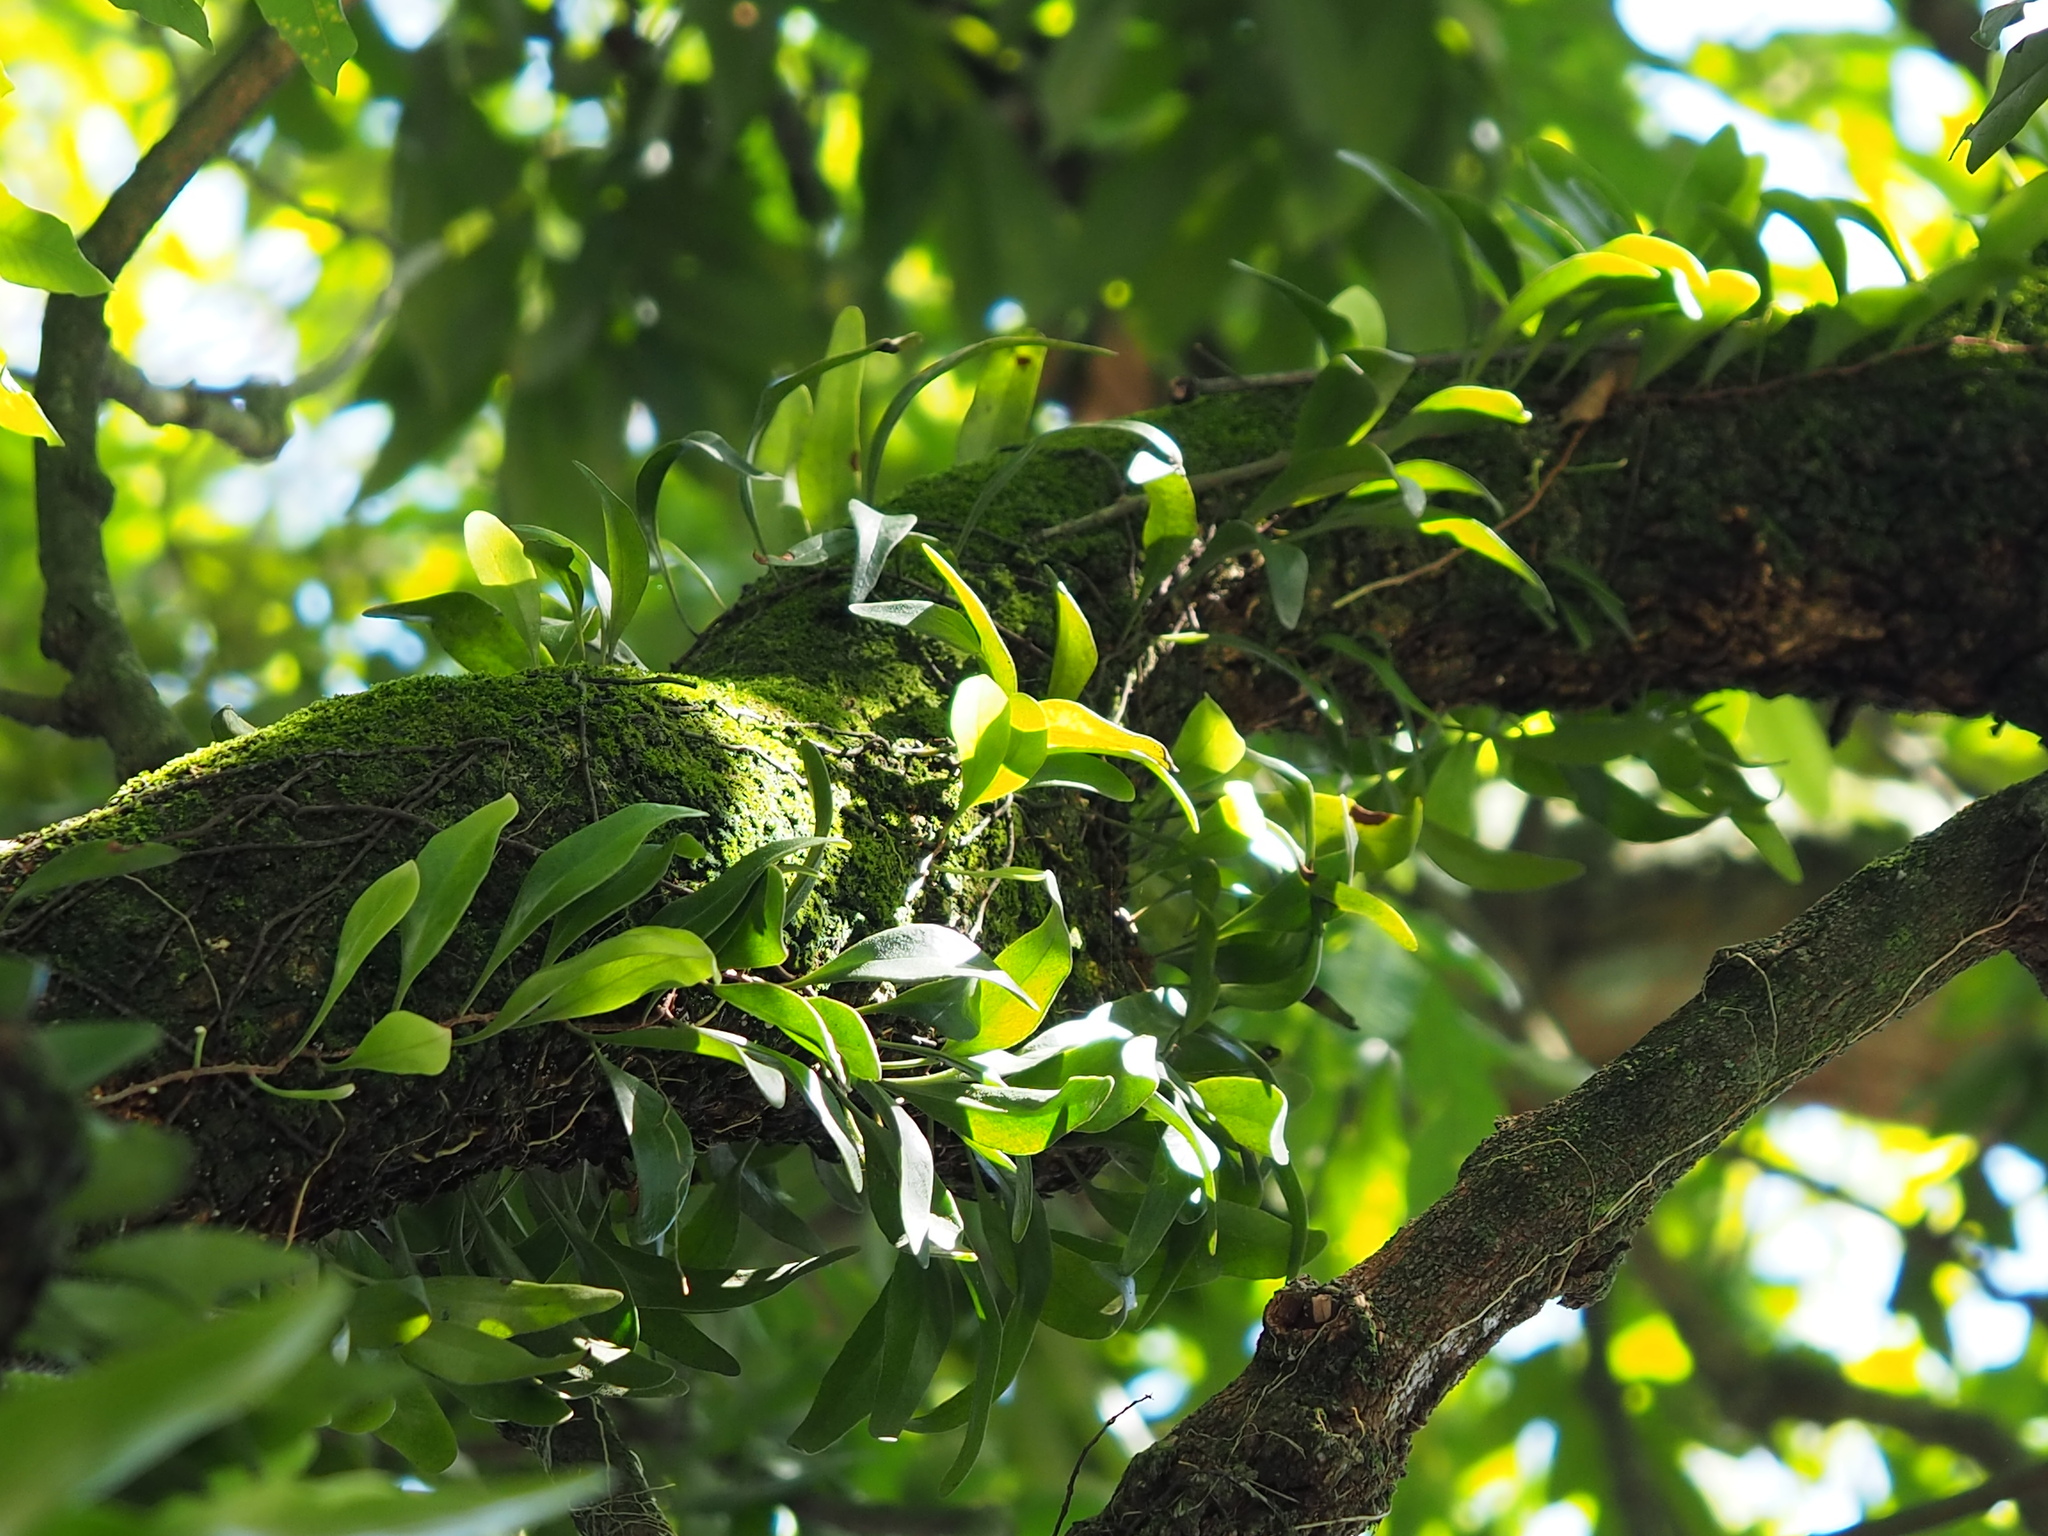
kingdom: Plantae
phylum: Tracheophyta
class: Polypodiopsida
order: Polypodiales
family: Polypodiaceae
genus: Pyrrosia
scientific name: Pyrrosia lanceolata
